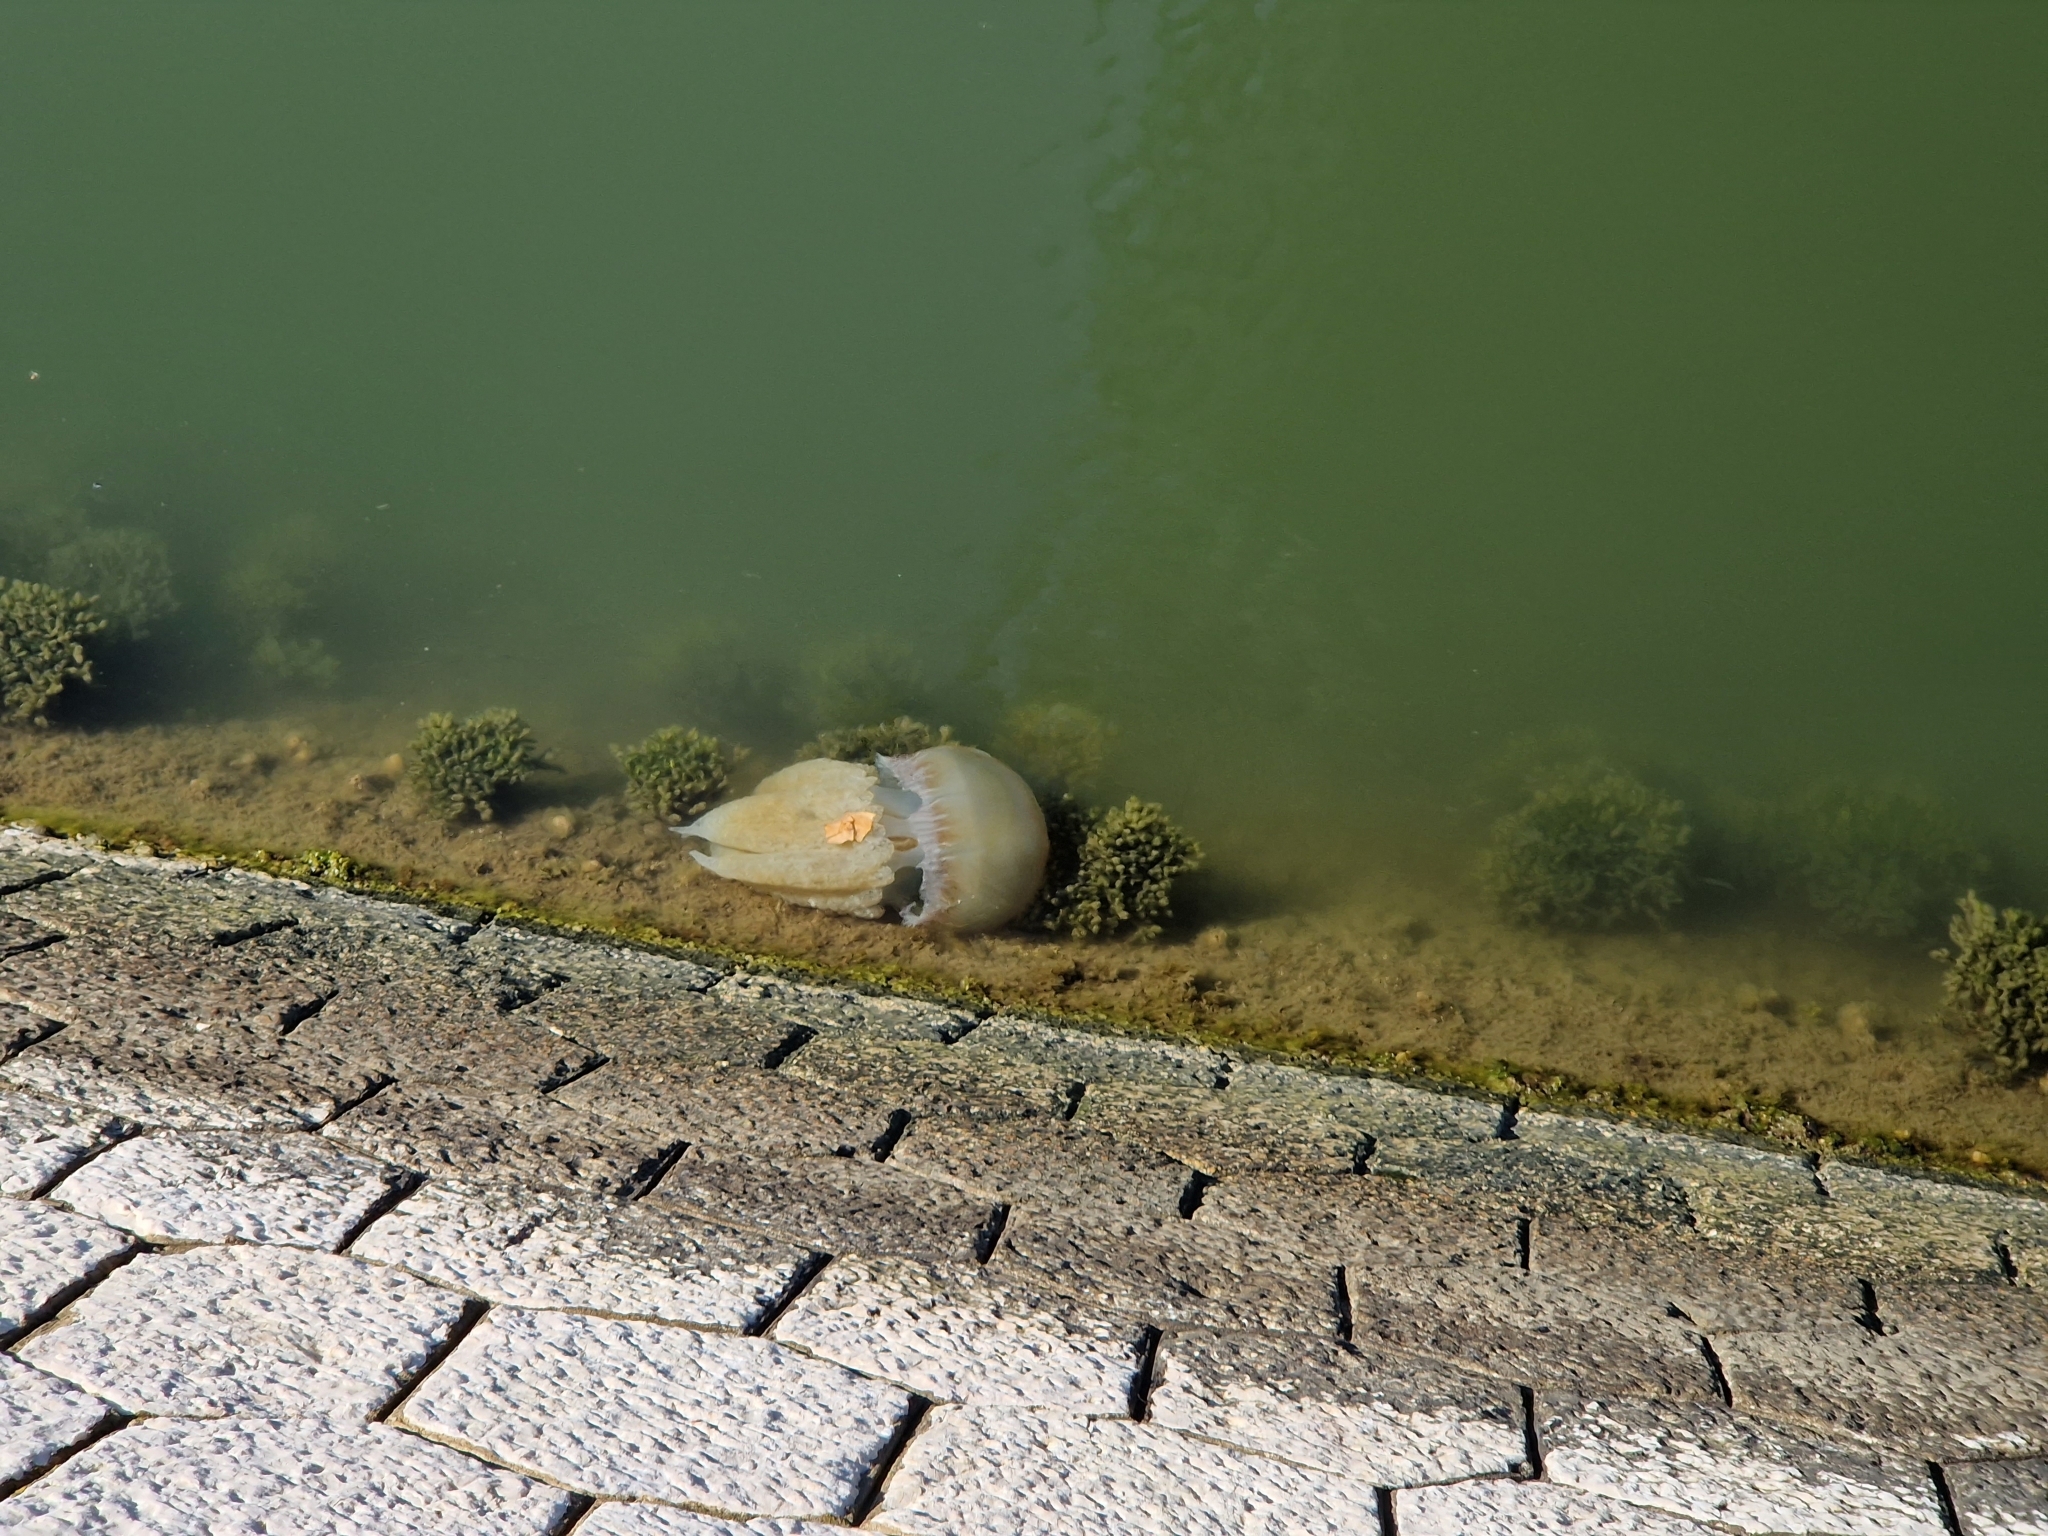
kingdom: Animalia
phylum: Cnidaria
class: Scyphozoa
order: Rhizostomeae
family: Catostylidae
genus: Catostylus
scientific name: Catostylus tagi
